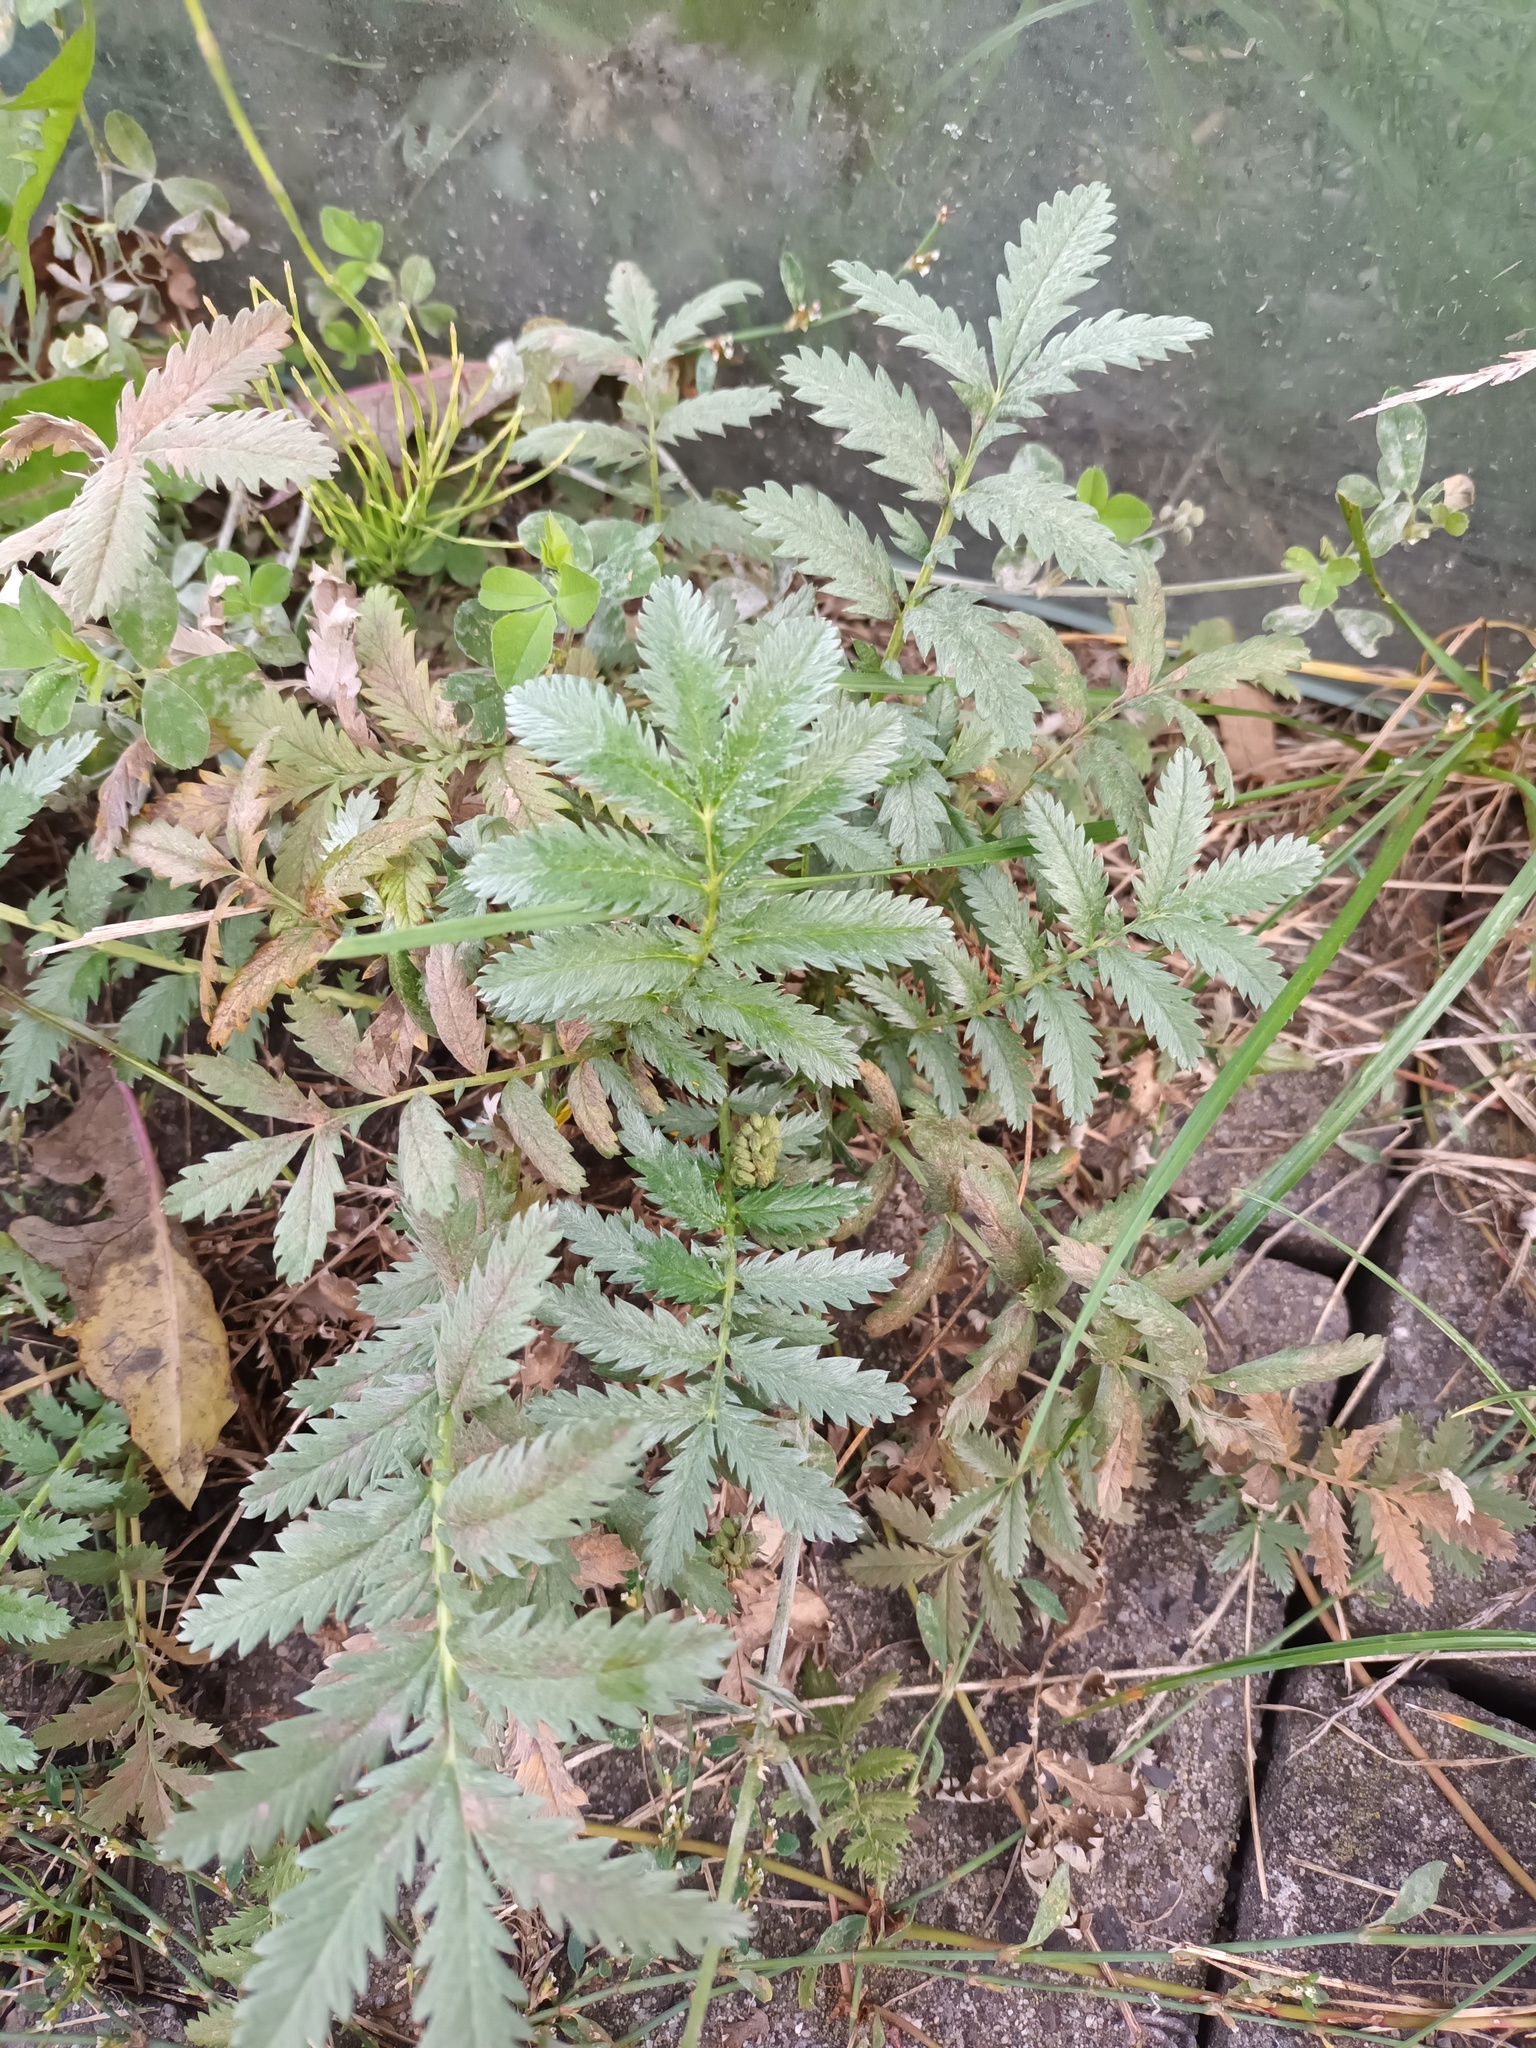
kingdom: Plantae
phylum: Tracheophyta
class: Magnoliopsida
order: Rosales
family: Rosaceae
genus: Argentina
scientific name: Argentina anserina
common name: Common silverweed
